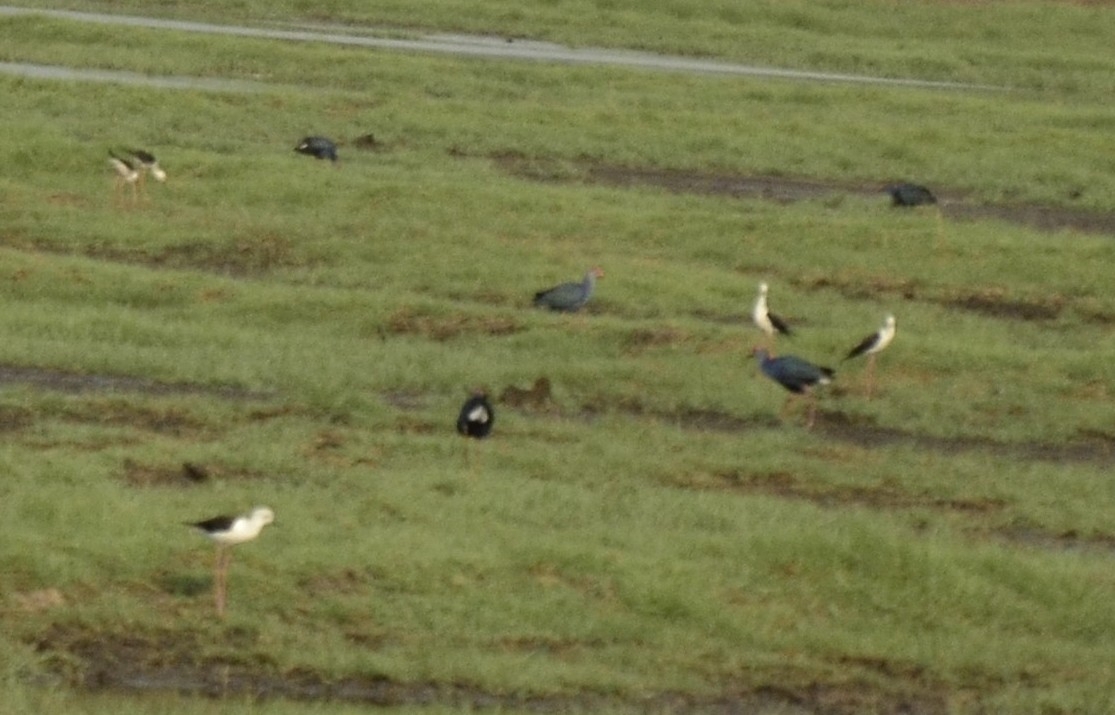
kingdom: Animalia
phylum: Chordata
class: Aves
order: Charadriiformes
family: Recurvirostridae
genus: Himantopus
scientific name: Himantopus himantopus
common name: Black-winged stilt
